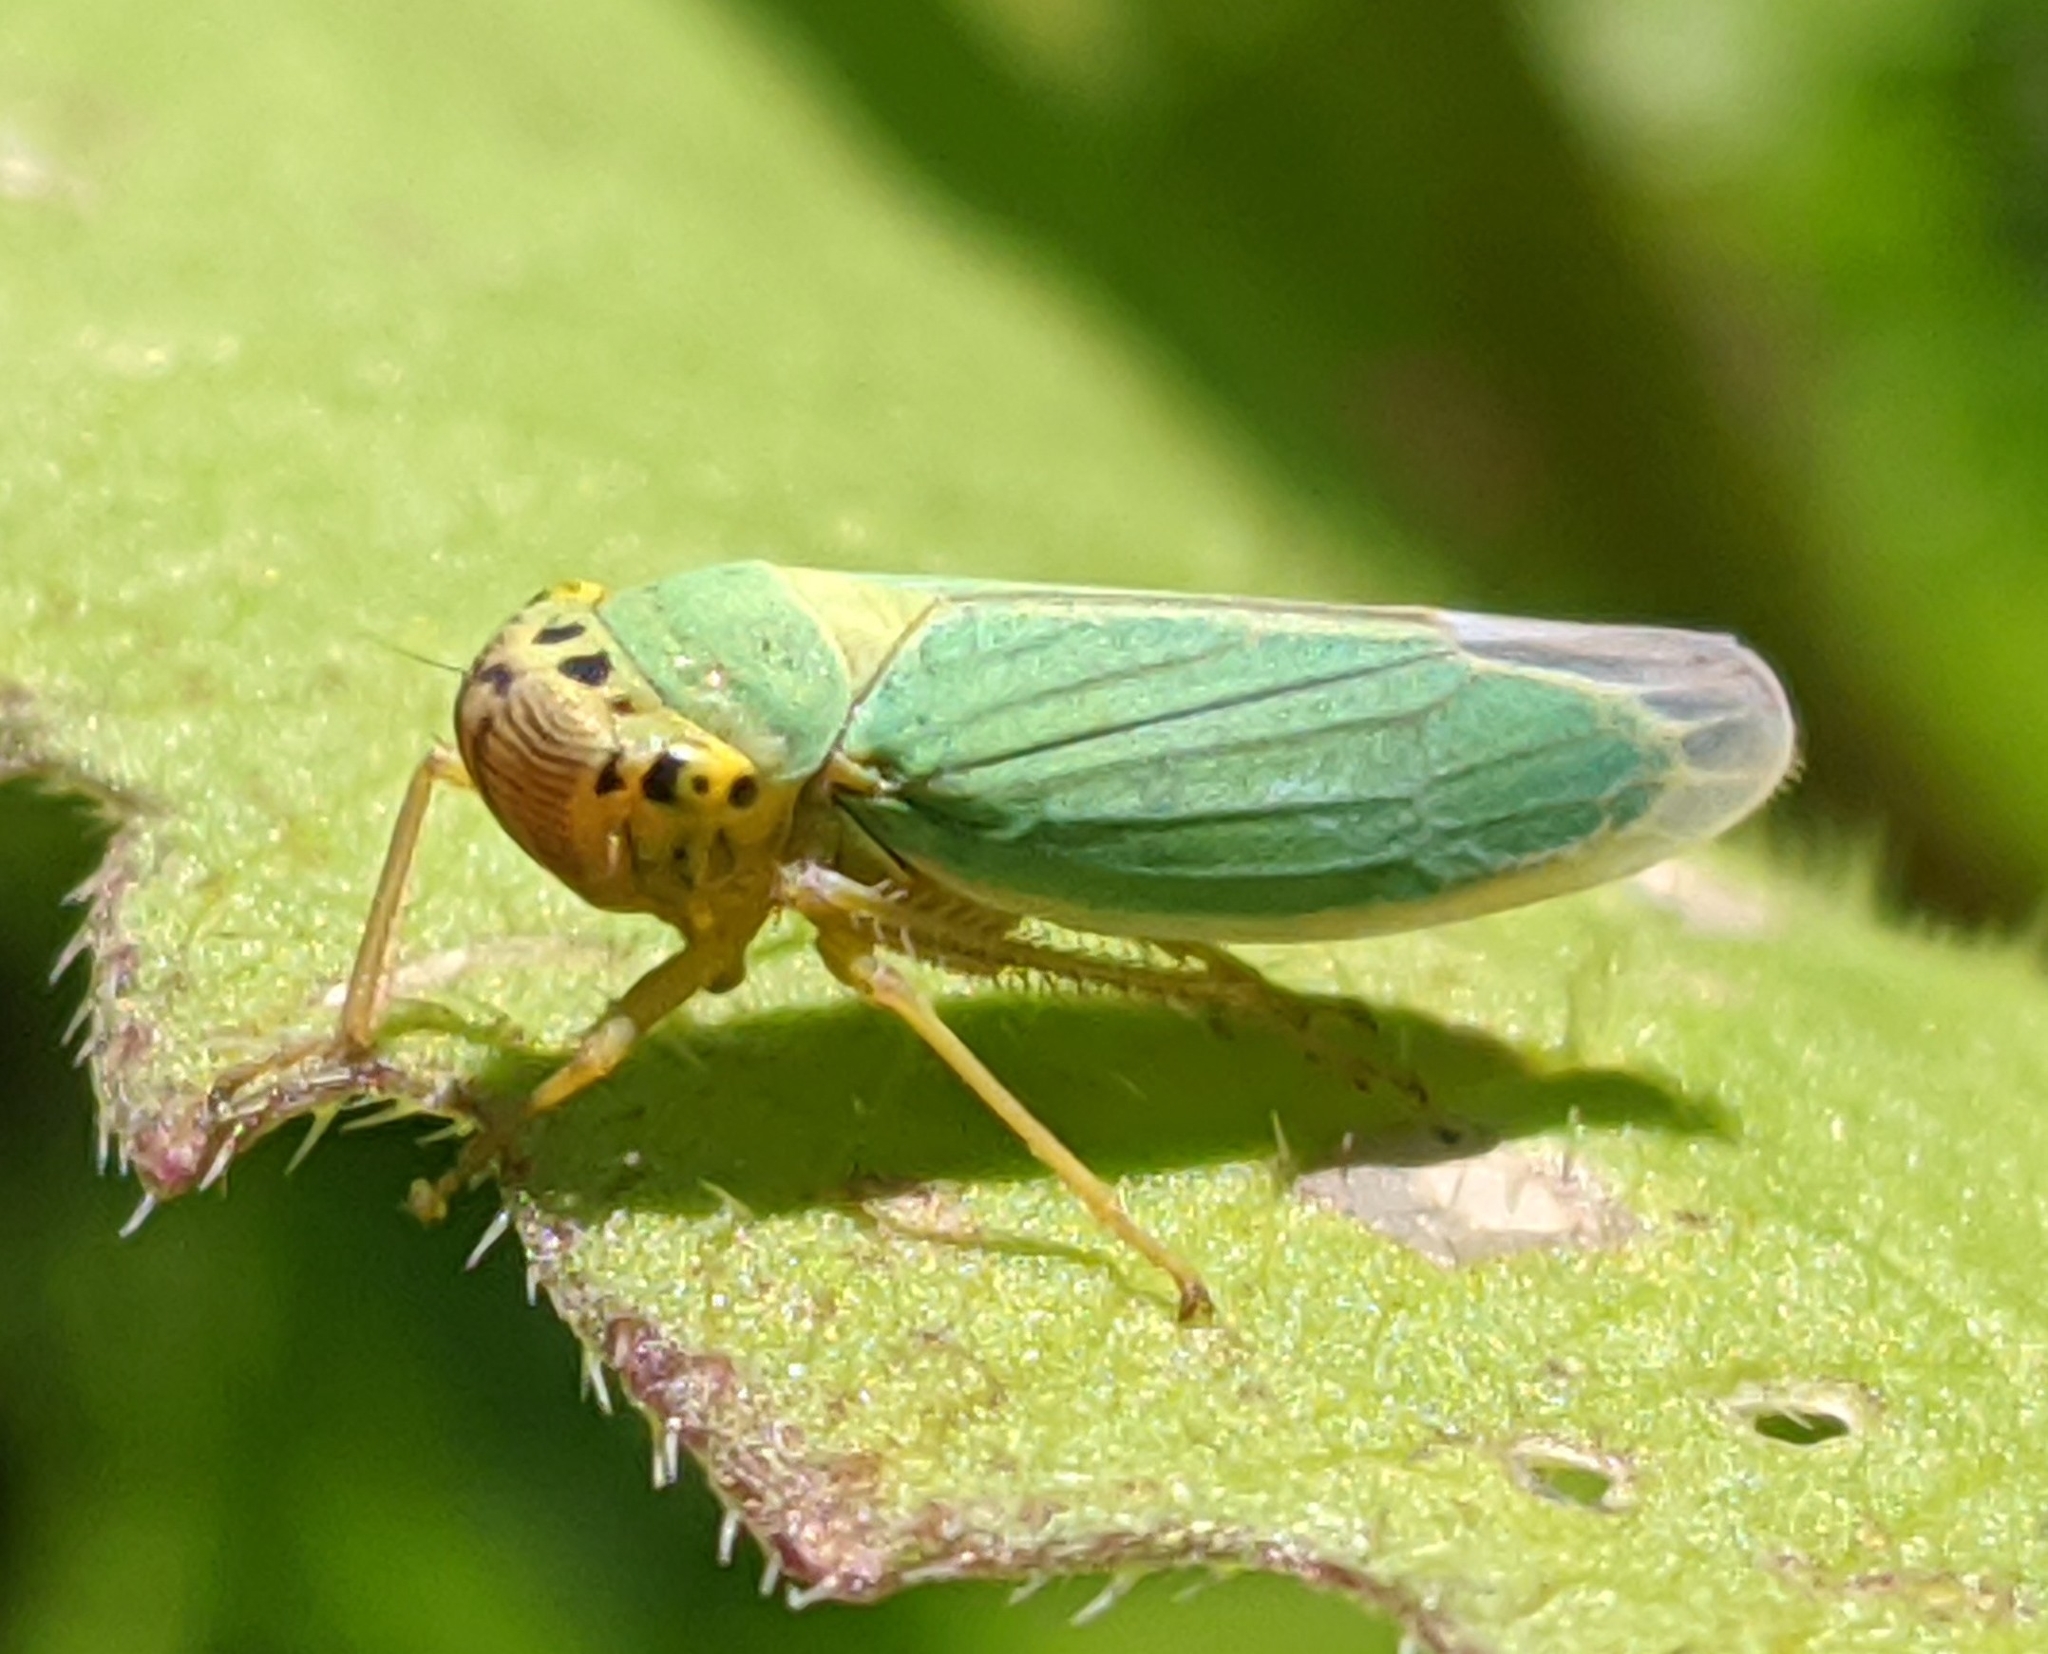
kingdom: Animalia
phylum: Arthropoda
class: Insecta
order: Hemiptera
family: Cicadellidae
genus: Cicadella
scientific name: Cicadella viridis
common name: Leafhopper
